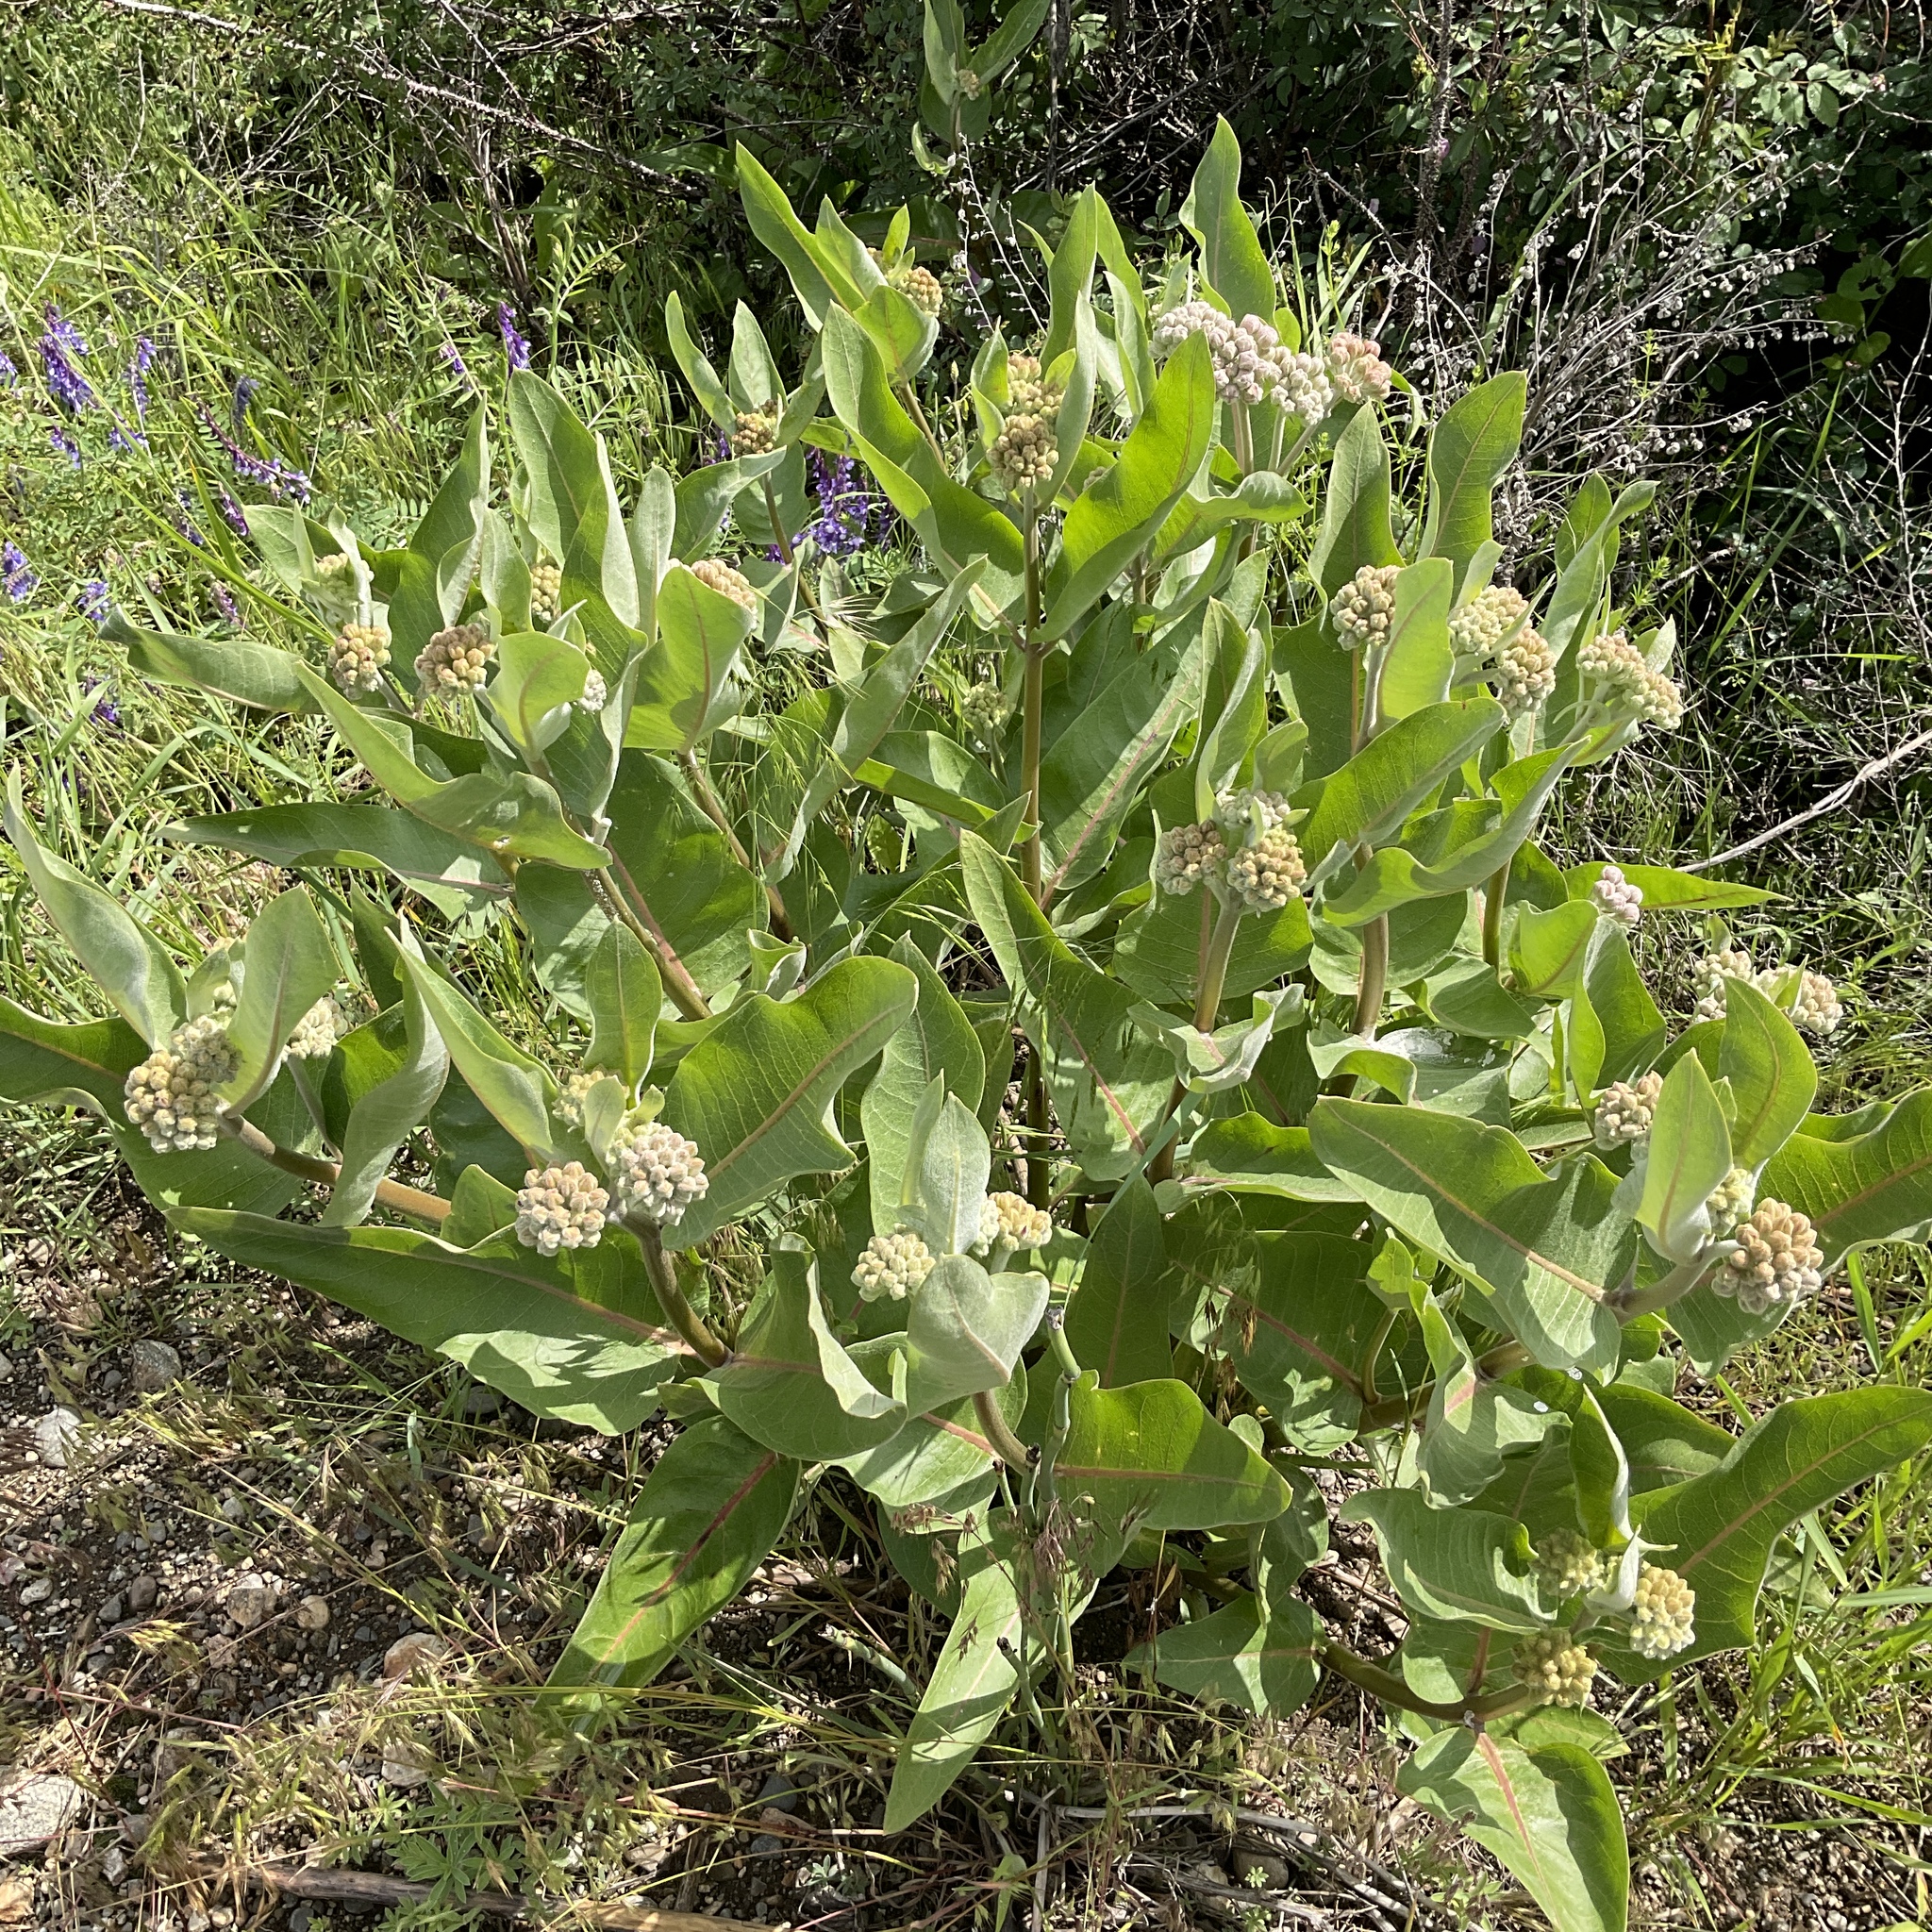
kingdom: Plantae
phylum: Tracheophyta
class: Magnoliopsida
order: Gentianales
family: Apocynaceae
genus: Asclepias
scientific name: Asclepias speciosa
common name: Showy milkweed
